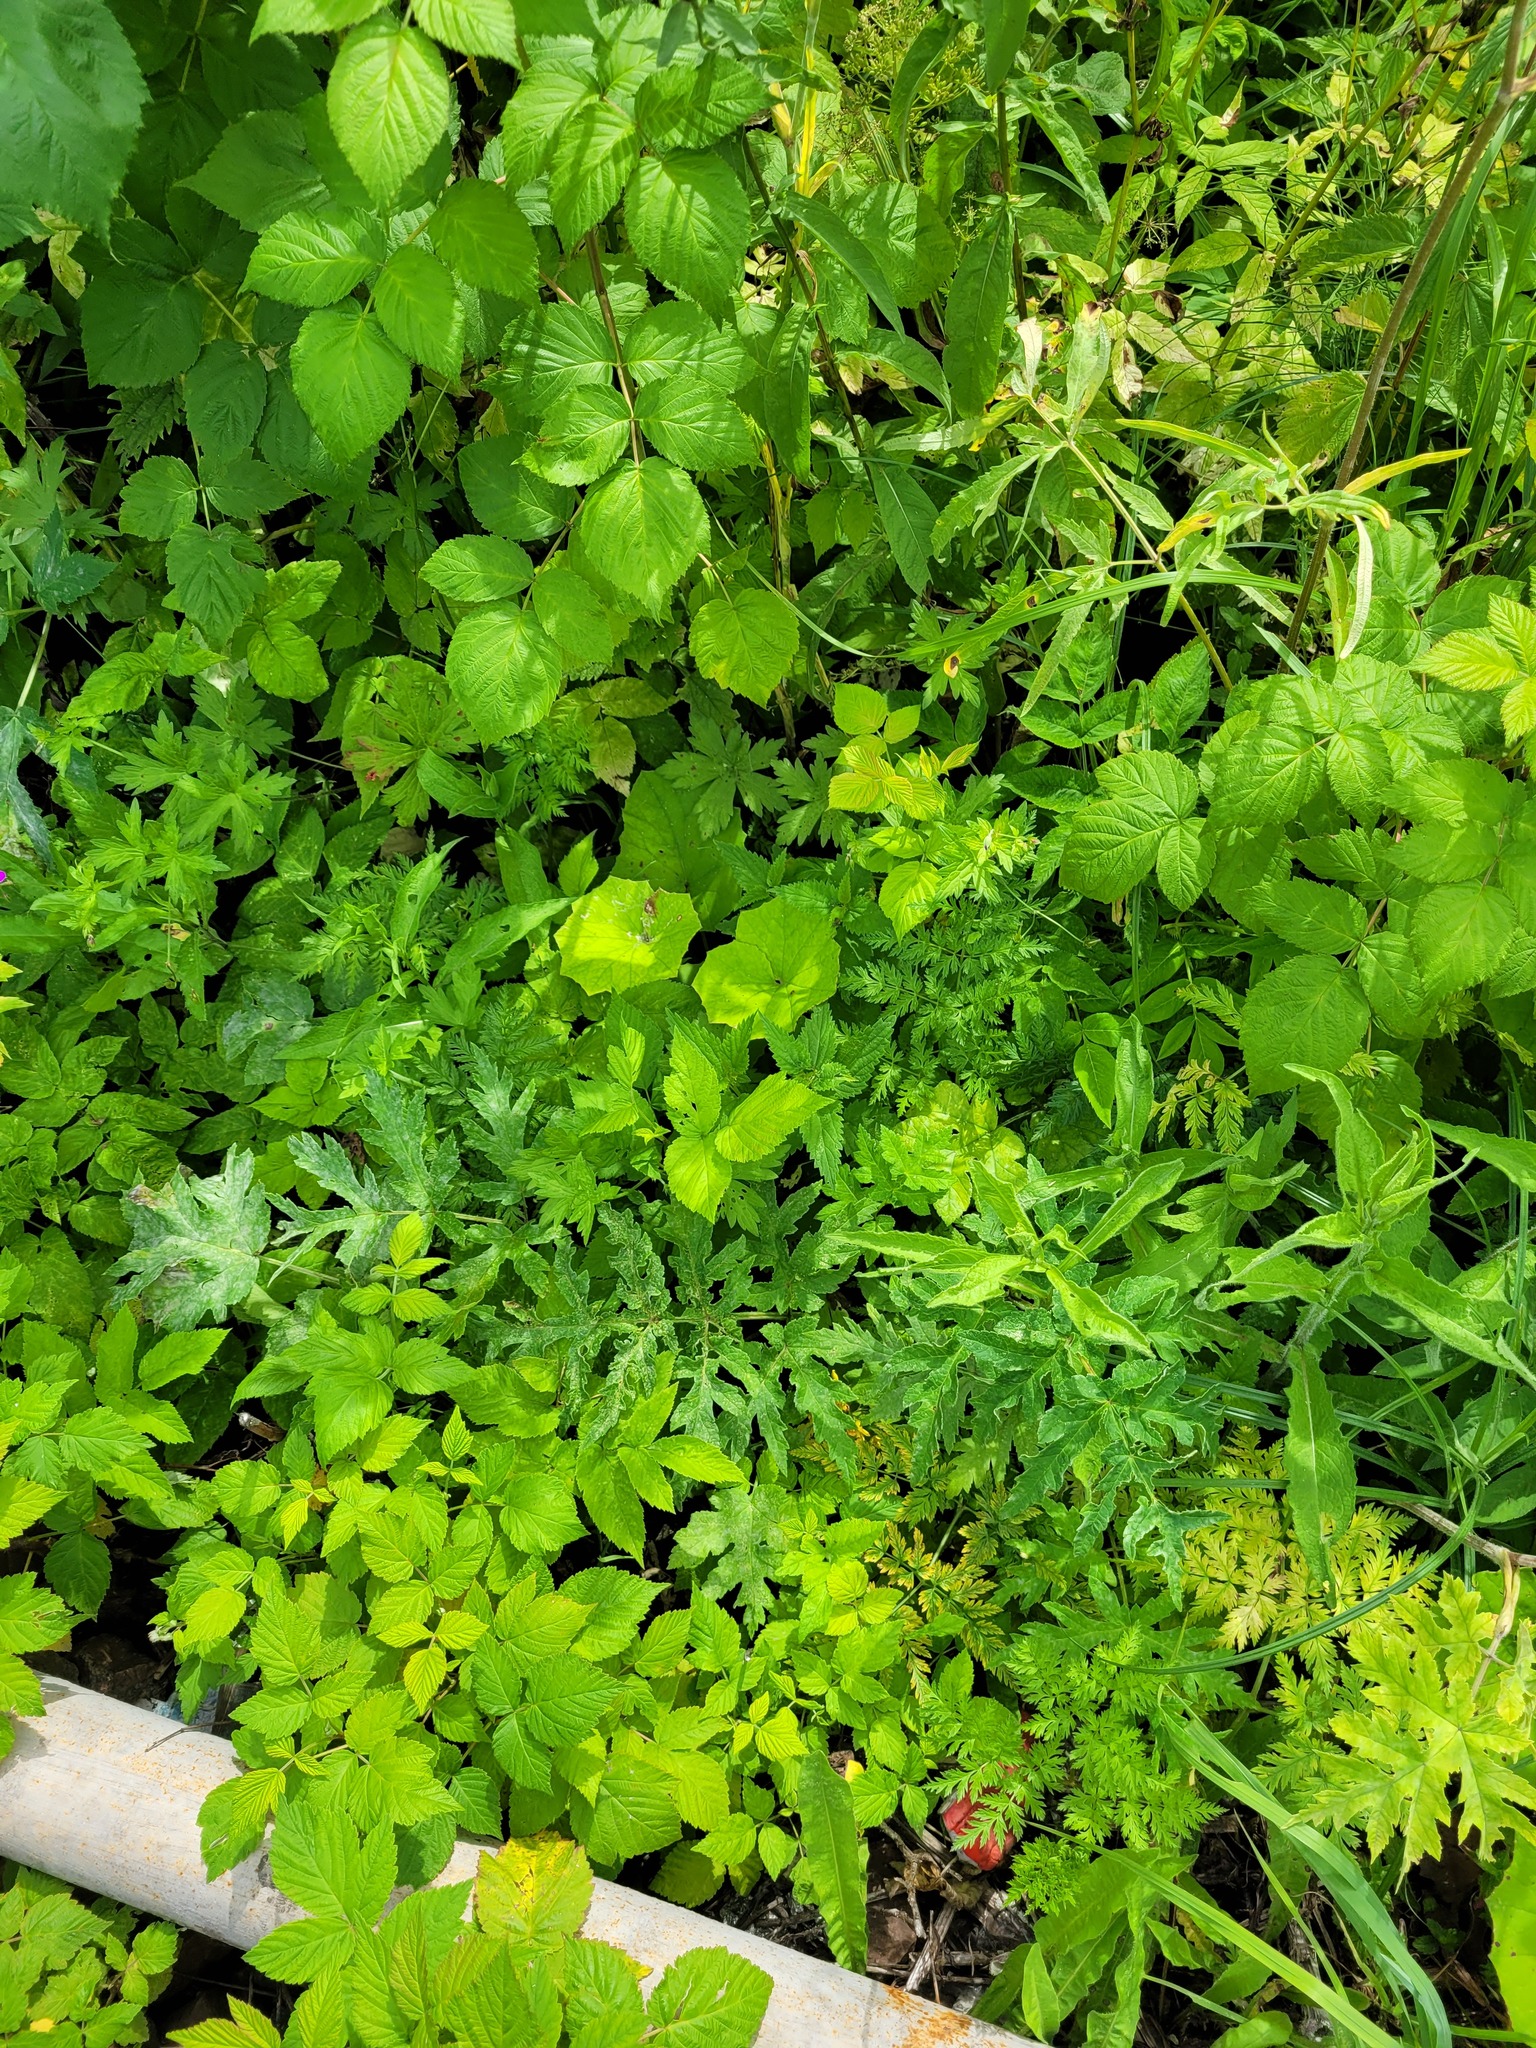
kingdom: Plantae
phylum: Tracheophyta
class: Magnoliopsida
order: Apiales
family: Apiaceae
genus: Heracleum
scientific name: Heracleum sphondylium
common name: Hogweed
